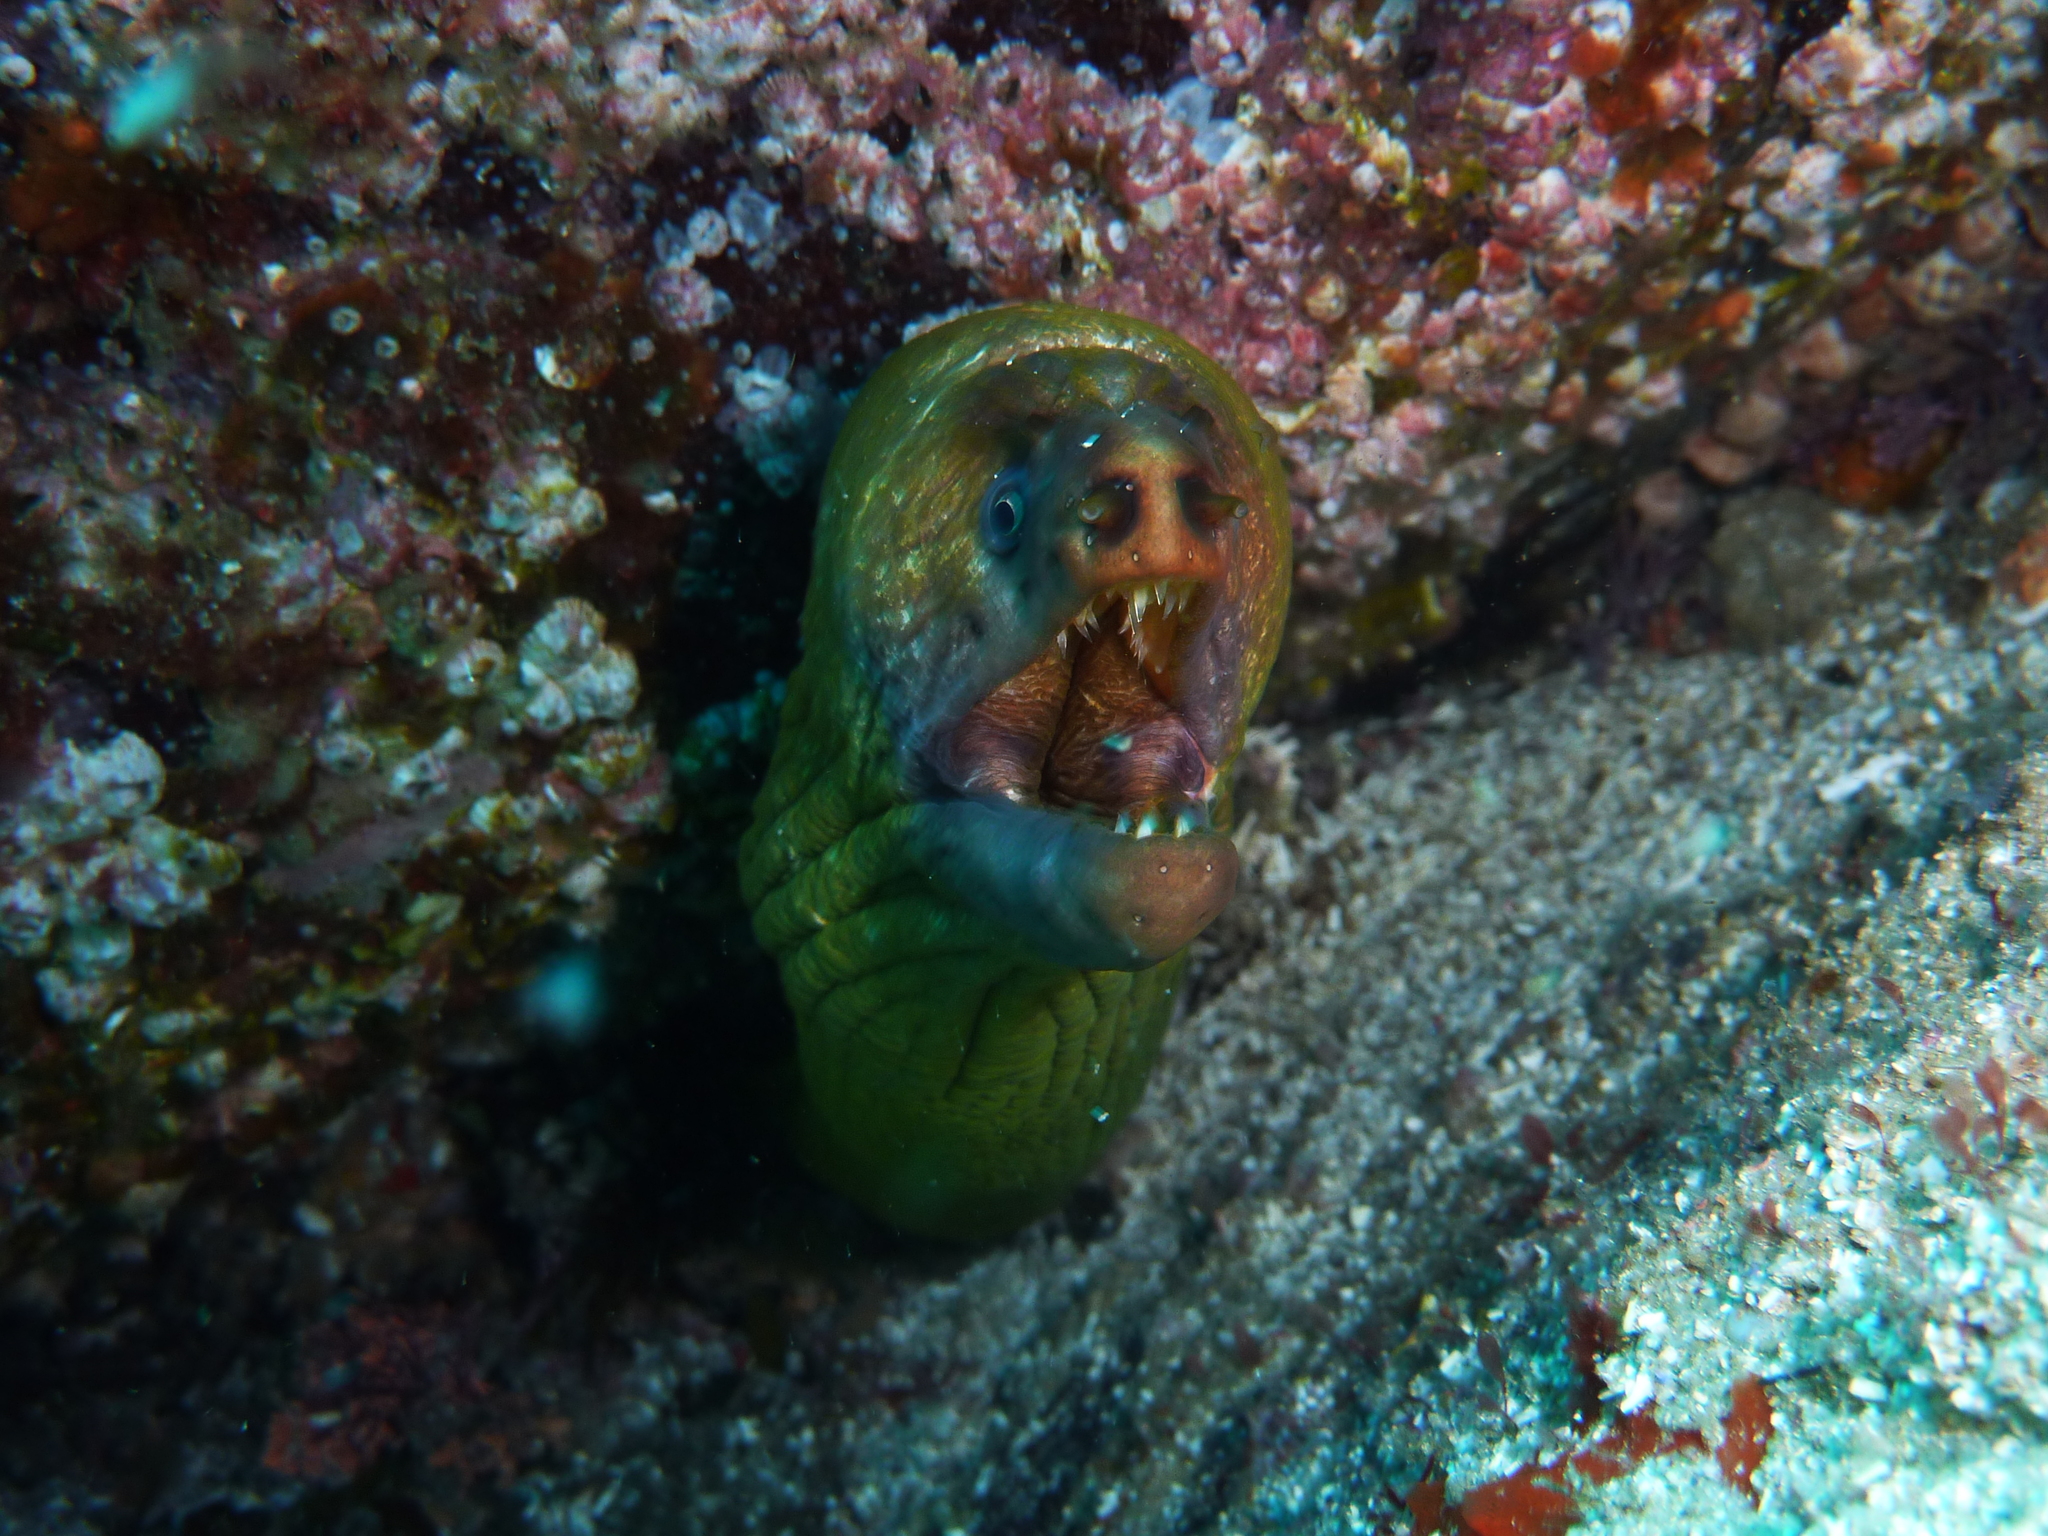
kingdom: Animalia
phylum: Chordata
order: Anguilliformes
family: Muraenidae
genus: Gymnothorax
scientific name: Gymnothorax prasinus
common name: Yellow moray
